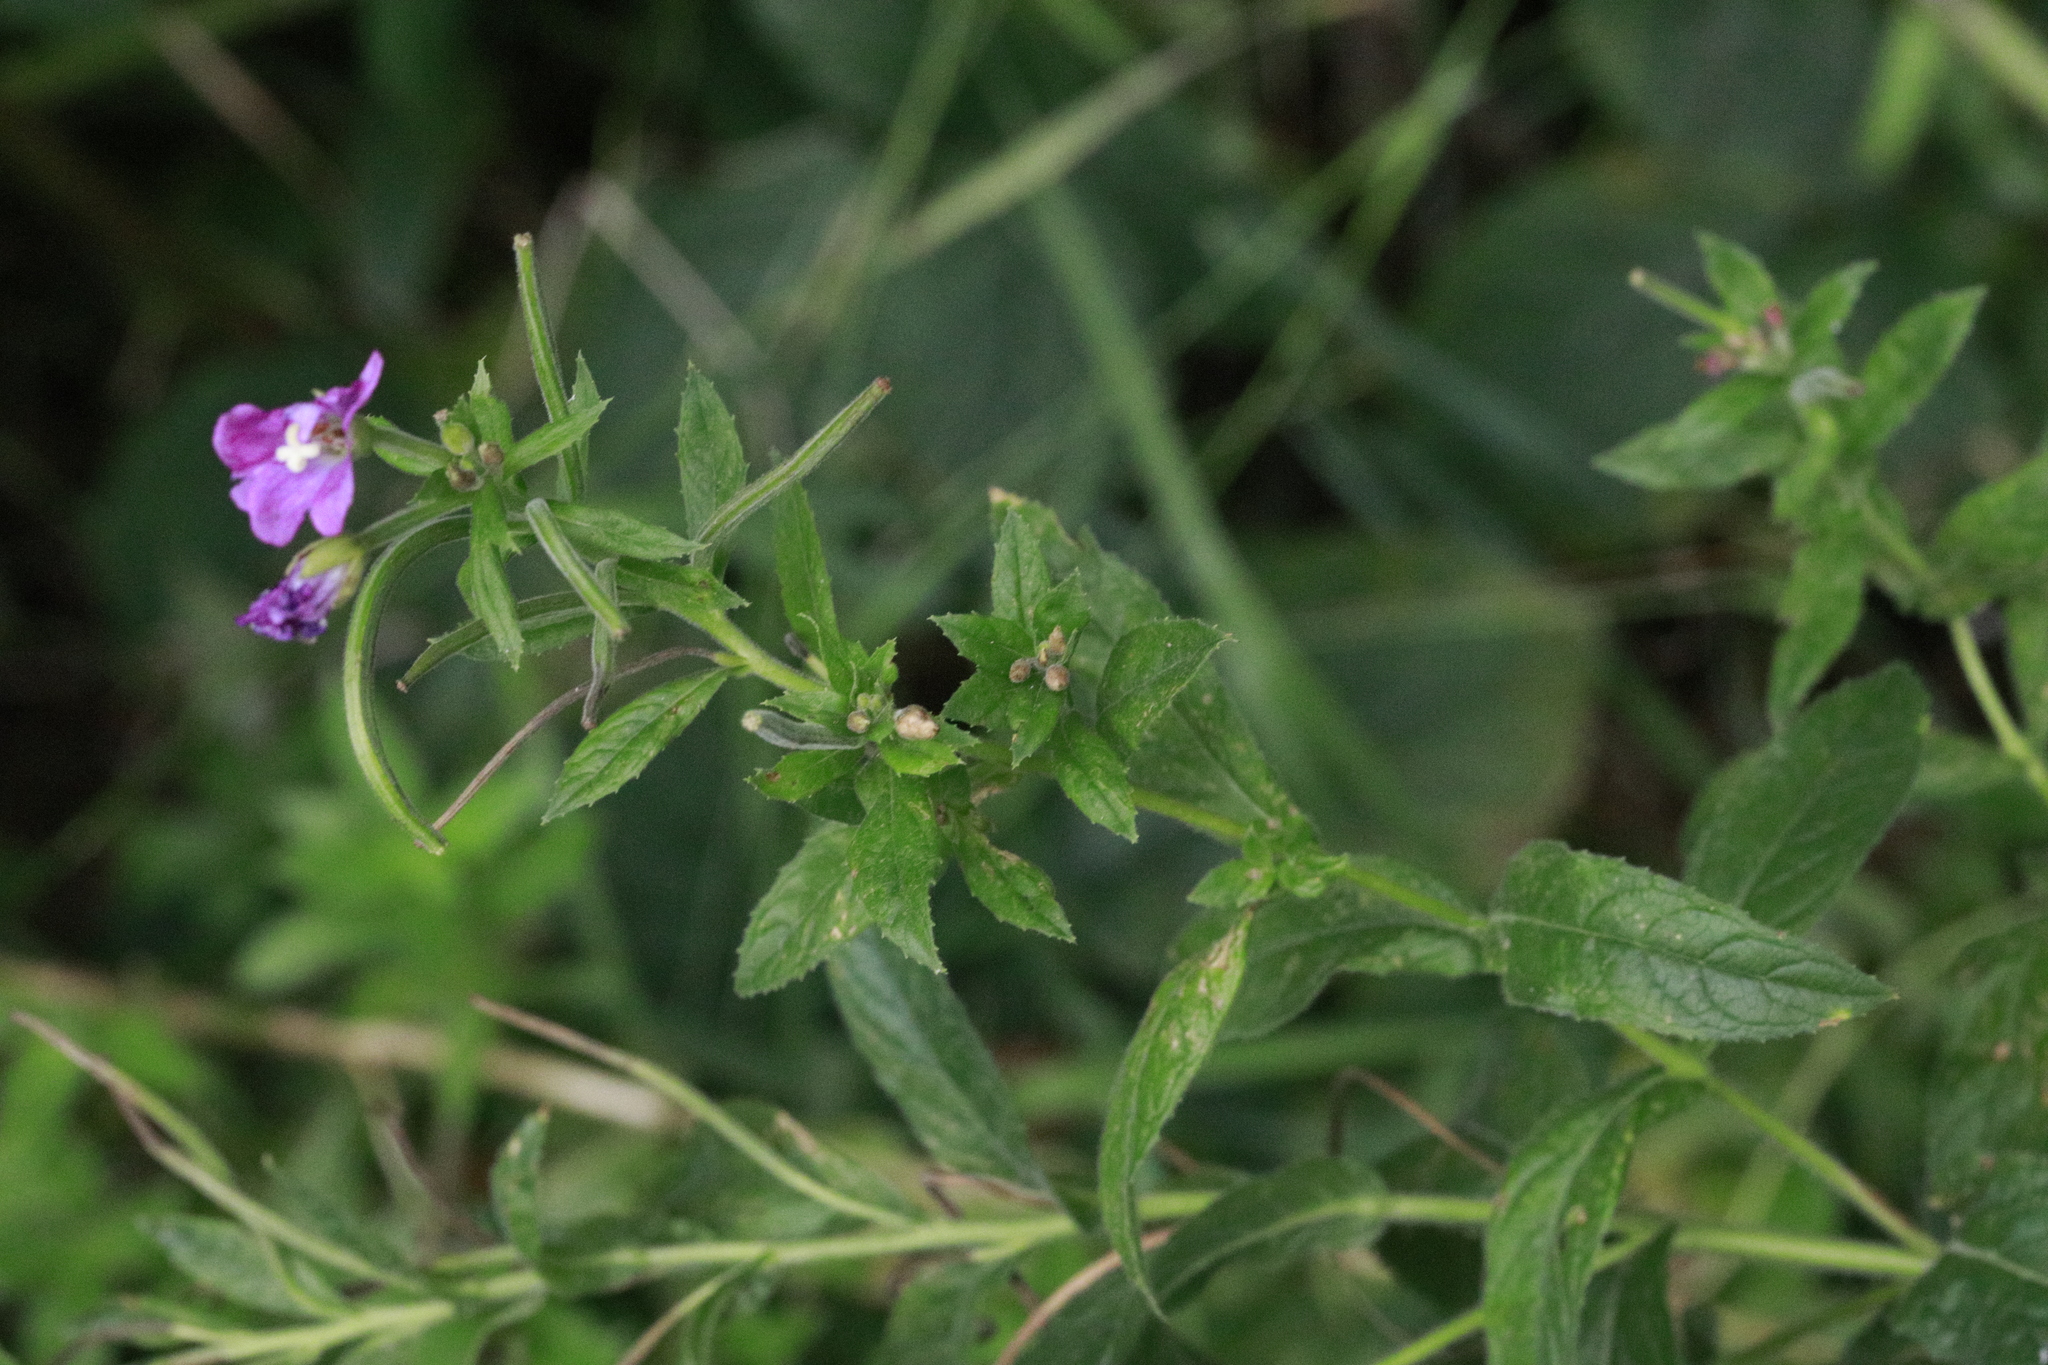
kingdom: Plantae
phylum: Tracheophyta
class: Magnoliopsida
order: Myrtales
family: Onagraceae
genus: Epilobium
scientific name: Epilobium hirsutum
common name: Great willowherb
